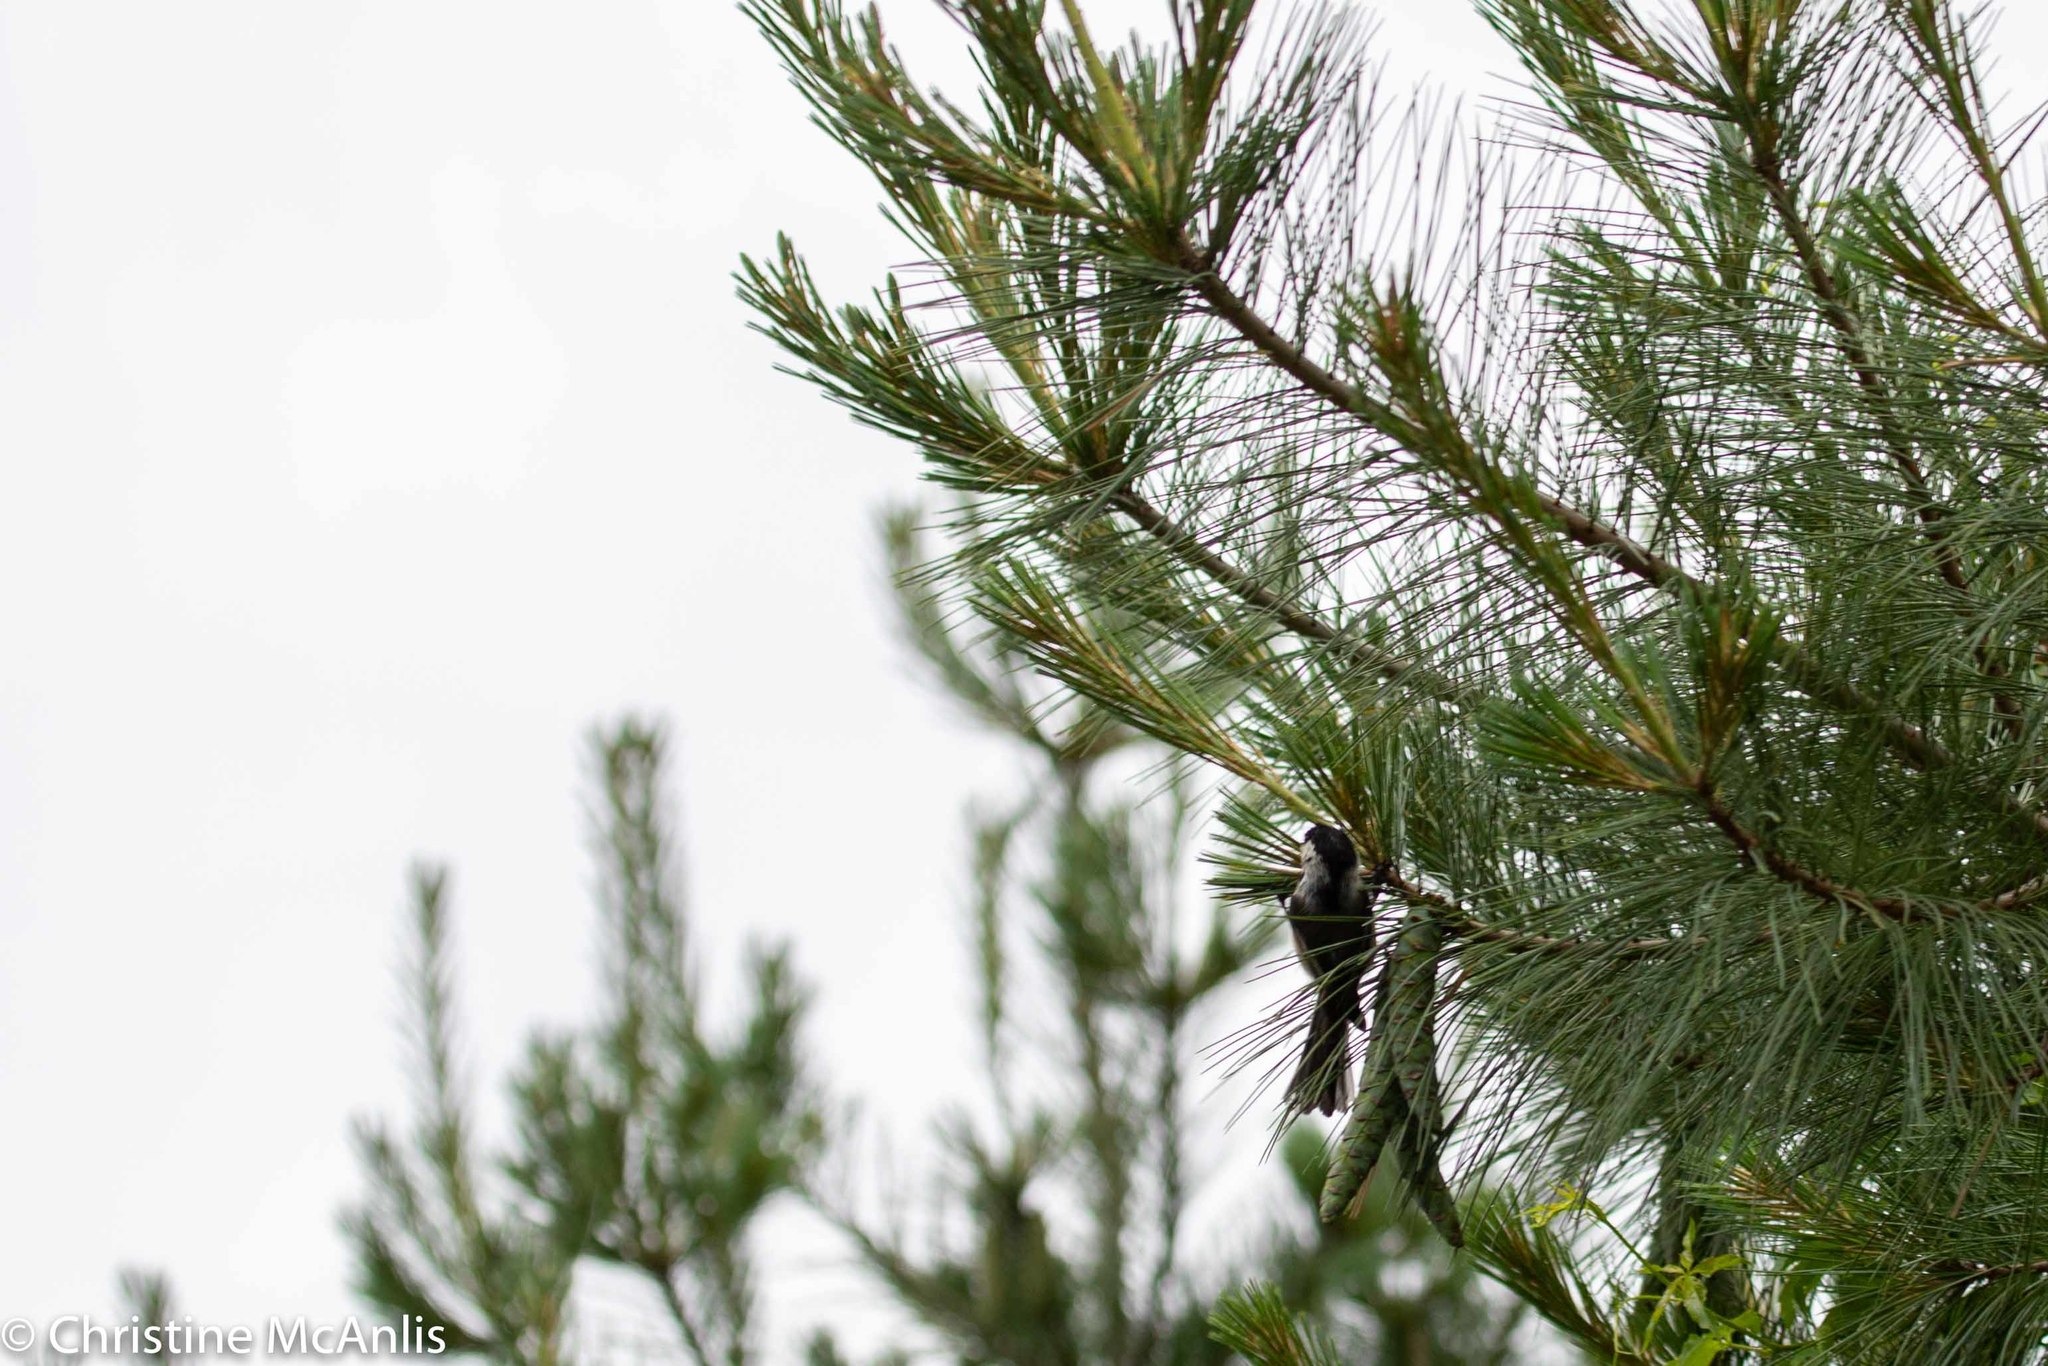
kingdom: Animalia
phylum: Chordata
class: Aves
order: Passeriformes
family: Paridae
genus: Poecile
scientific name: Poecile atricapillus
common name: Black-capped chickadee
